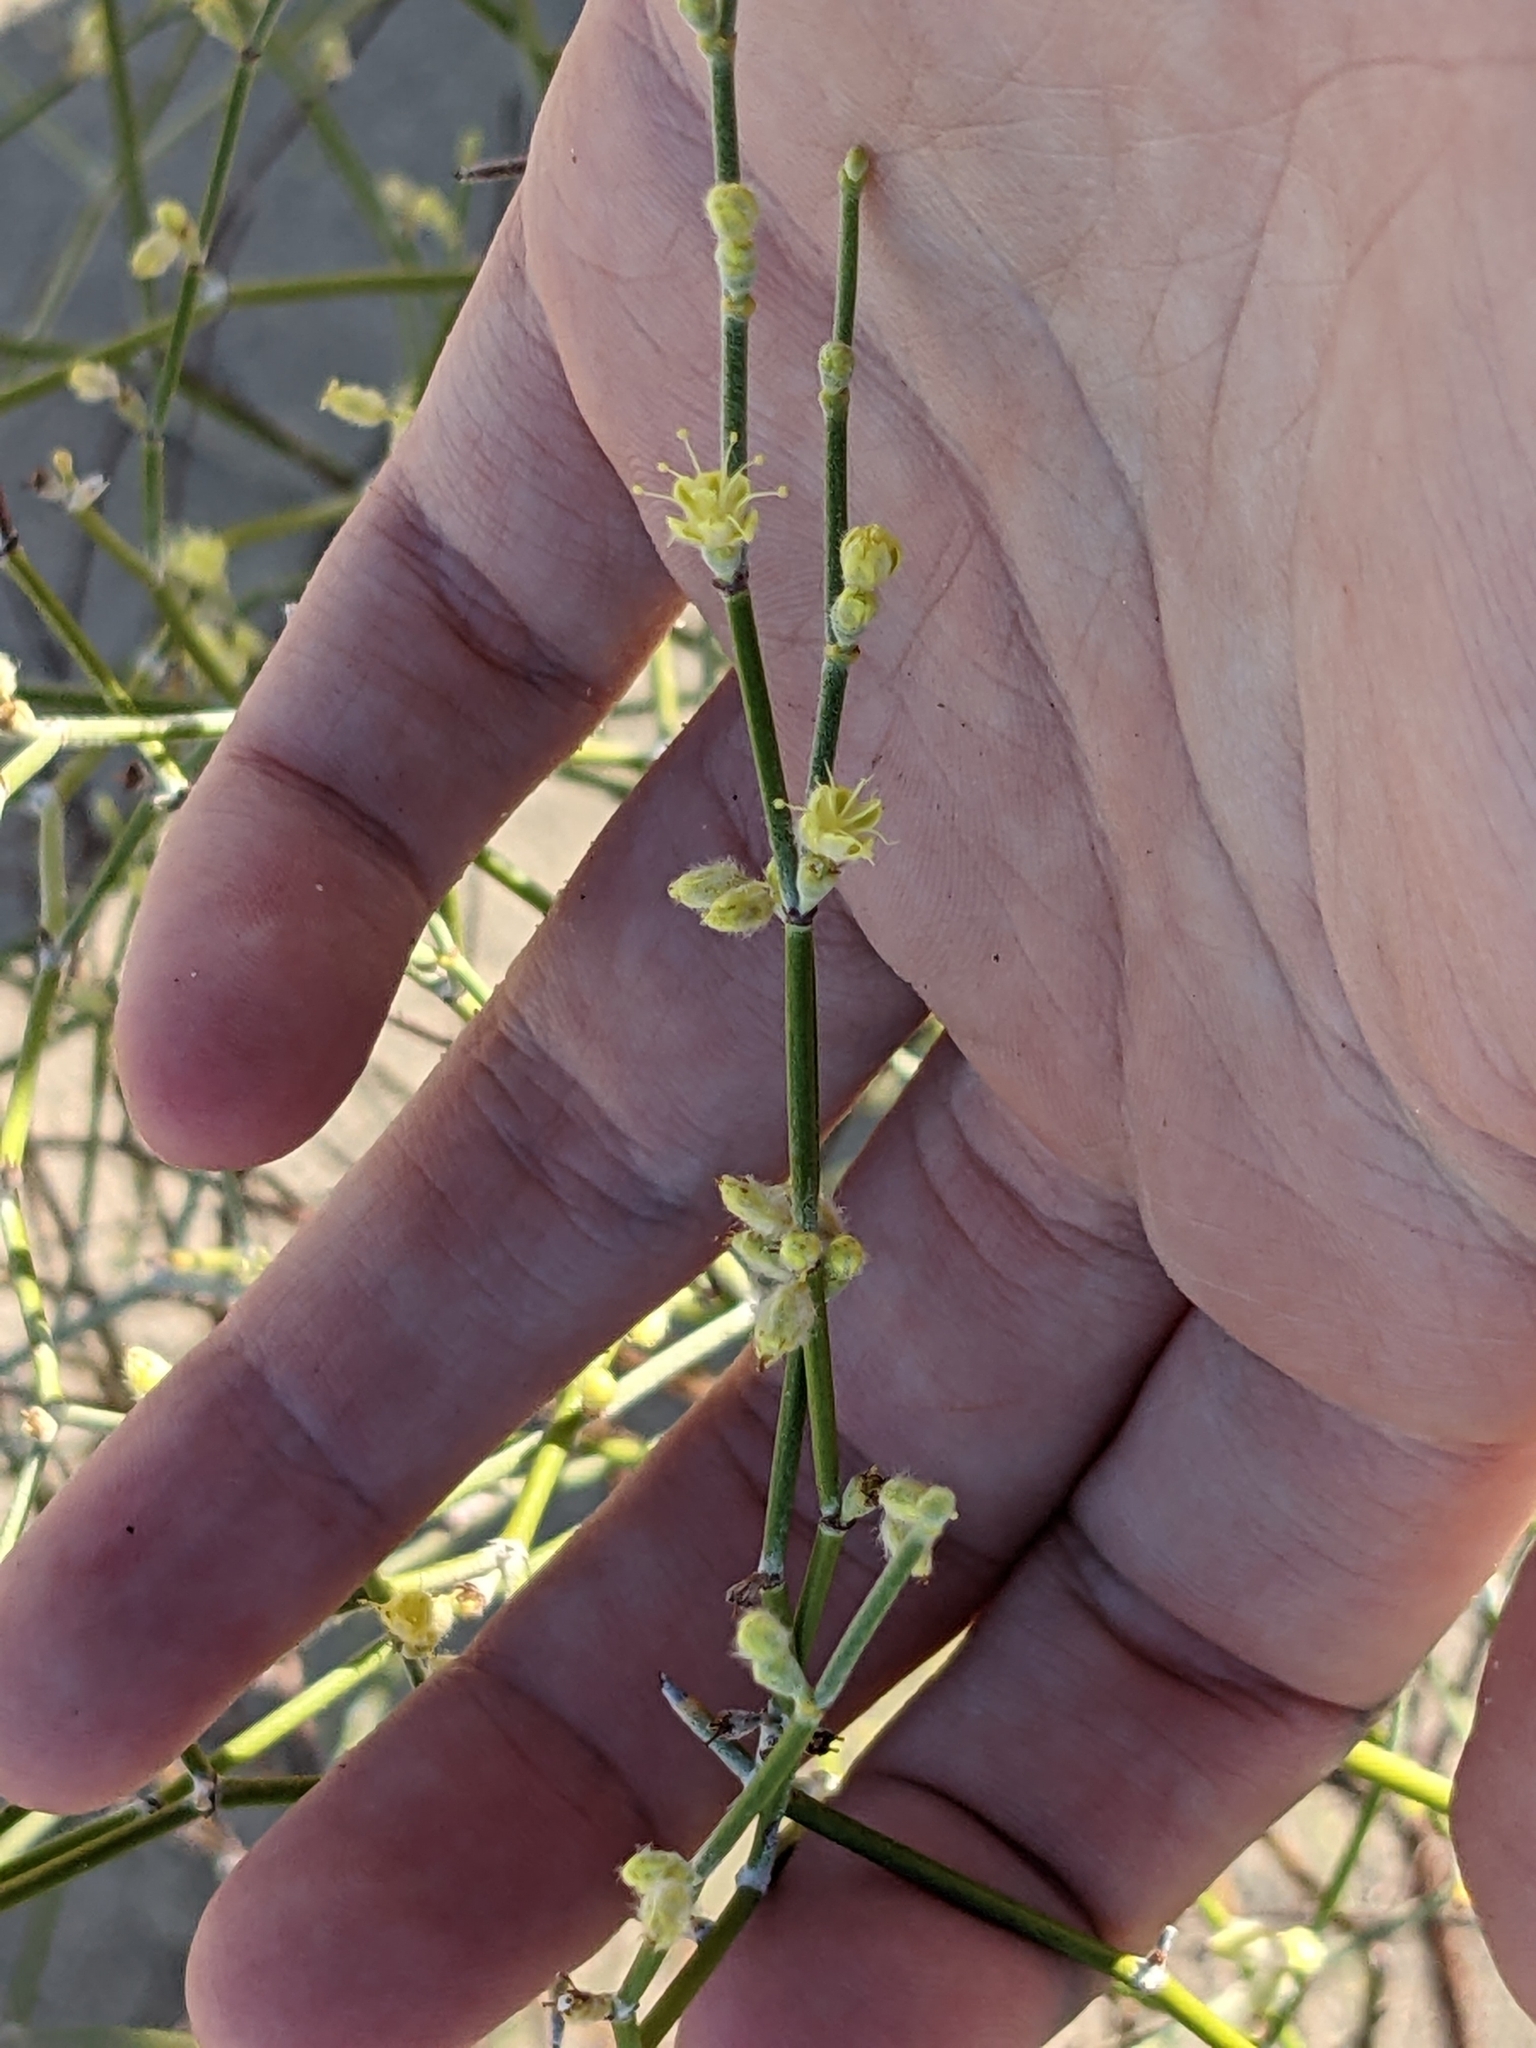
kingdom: Plantae
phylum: Tracheophyta
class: Magnoliopsida
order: Caryophyllales
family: Polygonaceae
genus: Eriogonum
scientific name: Eriogonum deserticola
